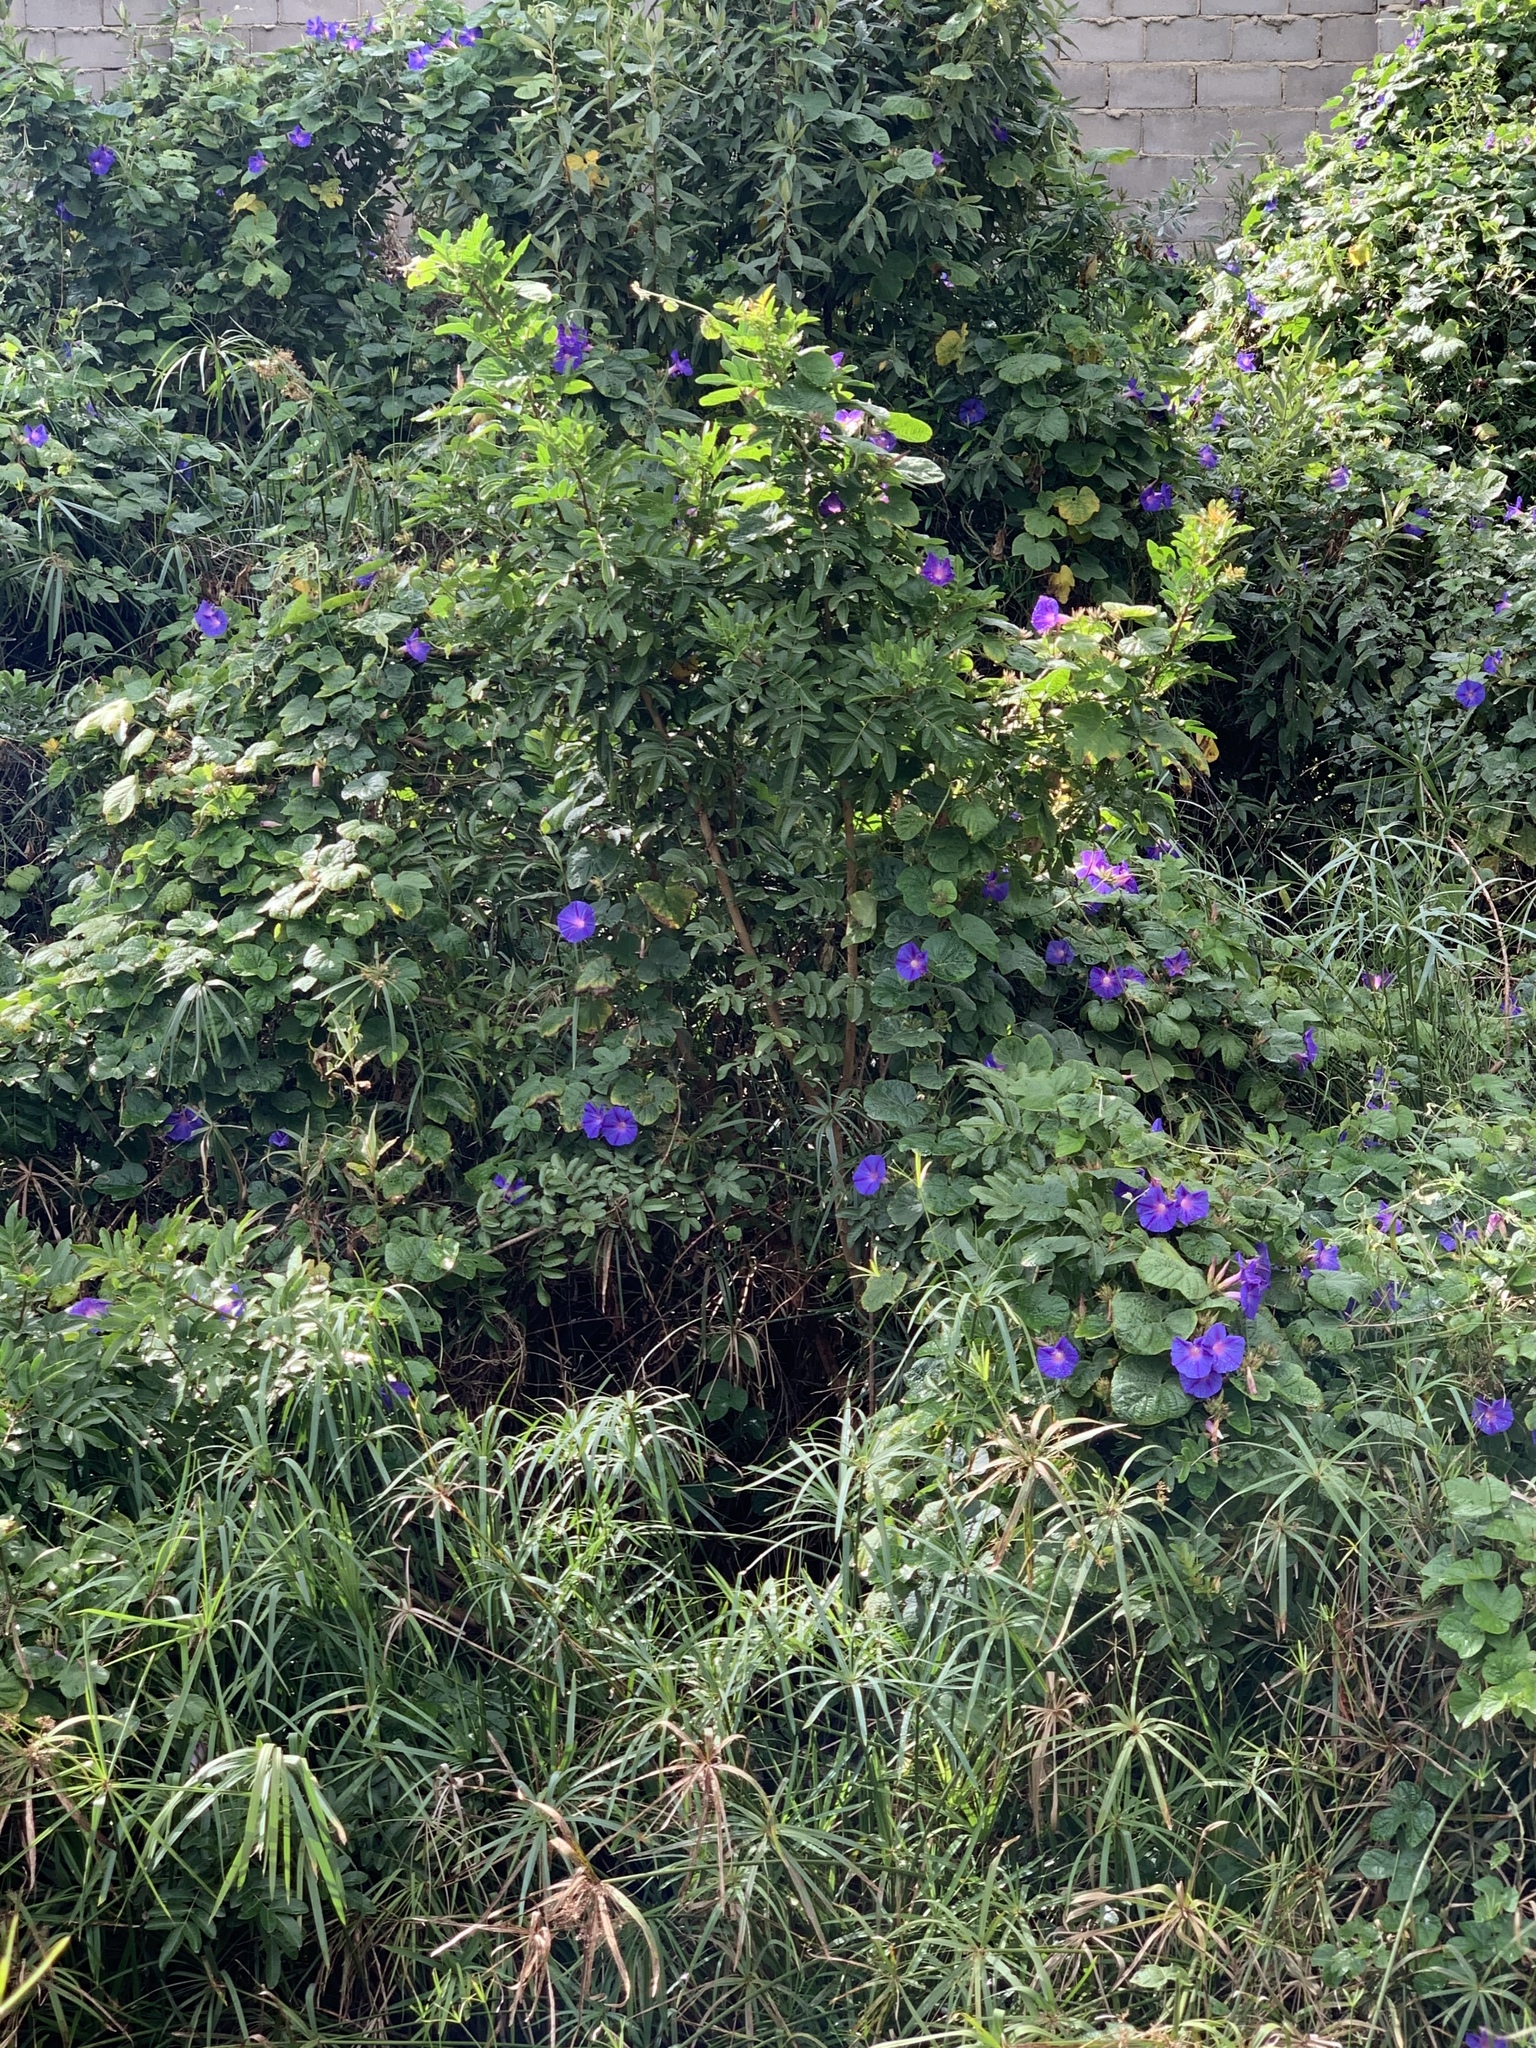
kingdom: Plantae
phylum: Tracheophyta
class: Magnoliopsida
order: Solanales
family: Convolvulaceae
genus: Ipomoea
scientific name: Ipomoea indica
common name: Blue dawnflower
